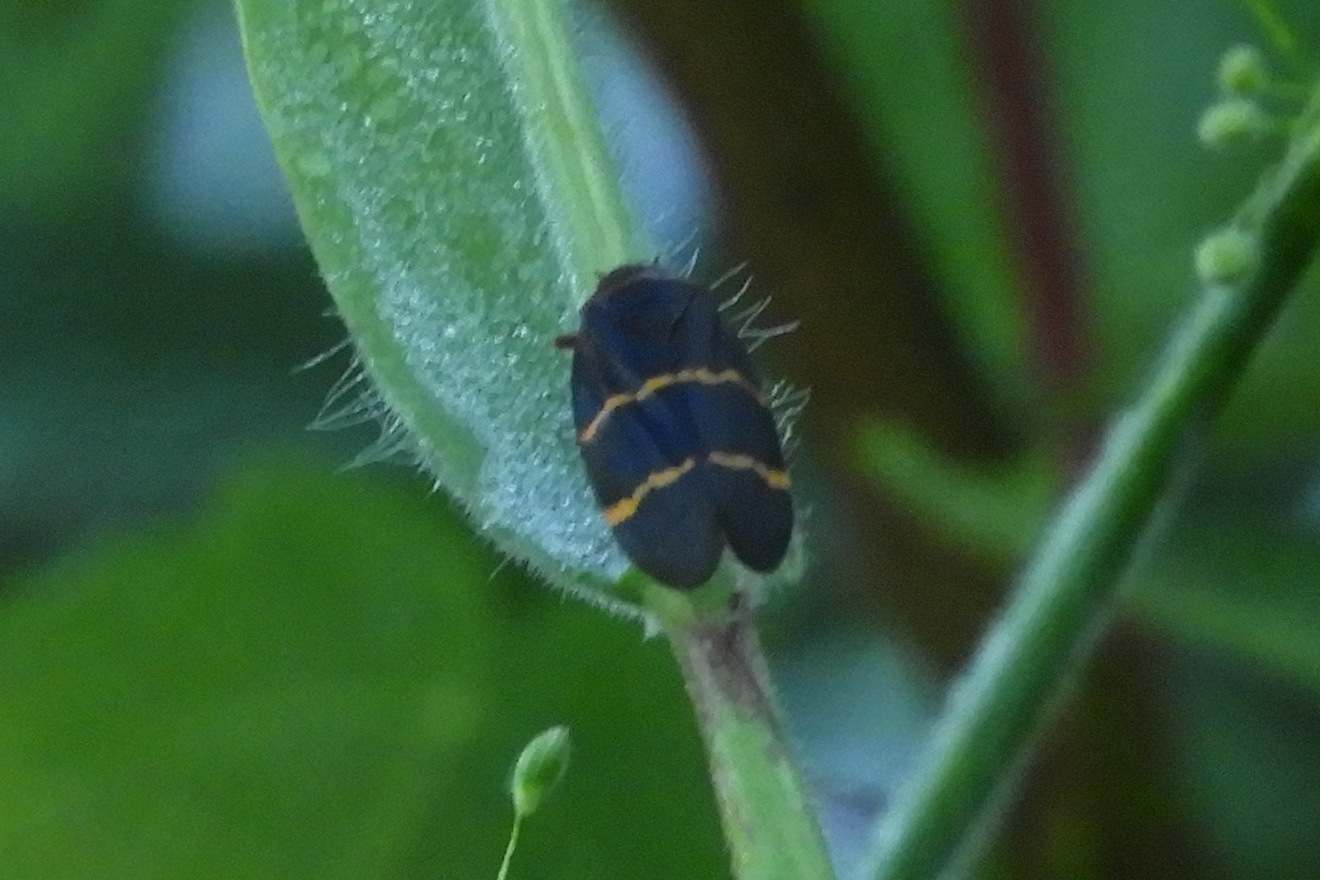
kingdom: Animalia
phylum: Arthropoda
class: Insecta
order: Hemiptera
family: Cercopidae
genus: Prosapia
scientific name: Prosapia bicincta
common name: Twolined spittlebug
